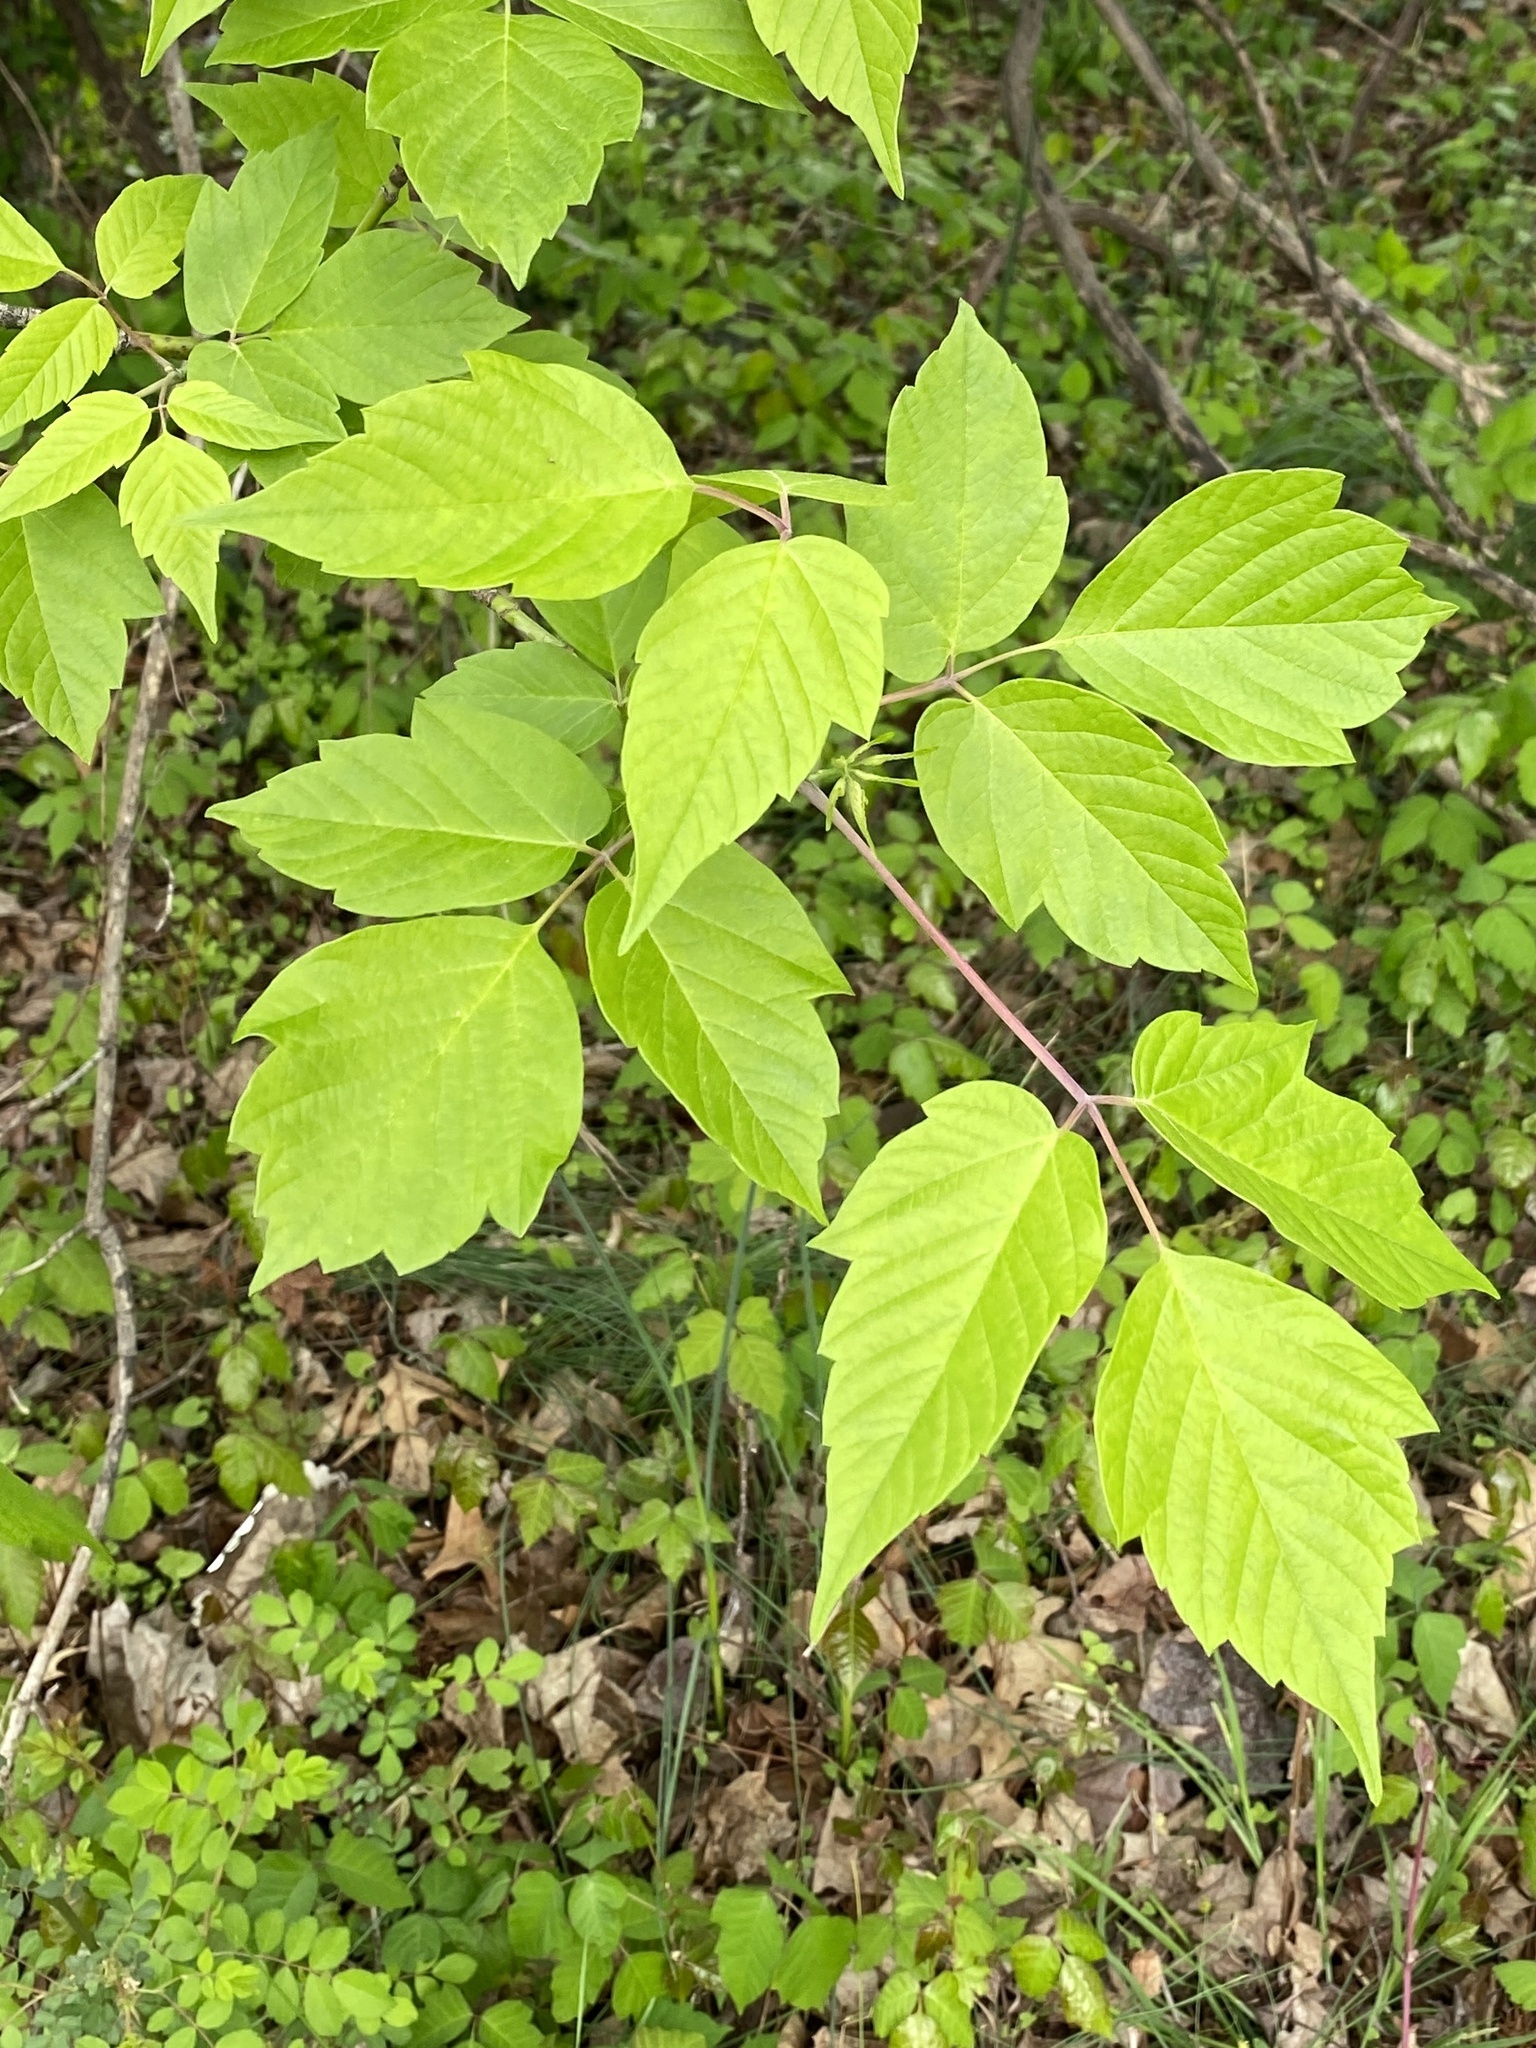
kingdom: Plantae
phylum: Tracheophyta
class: Magnoliopsida
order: Sapindales
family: Sapindaceae
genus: Acer
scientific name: Acer negundo
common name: Ashleaf maple
